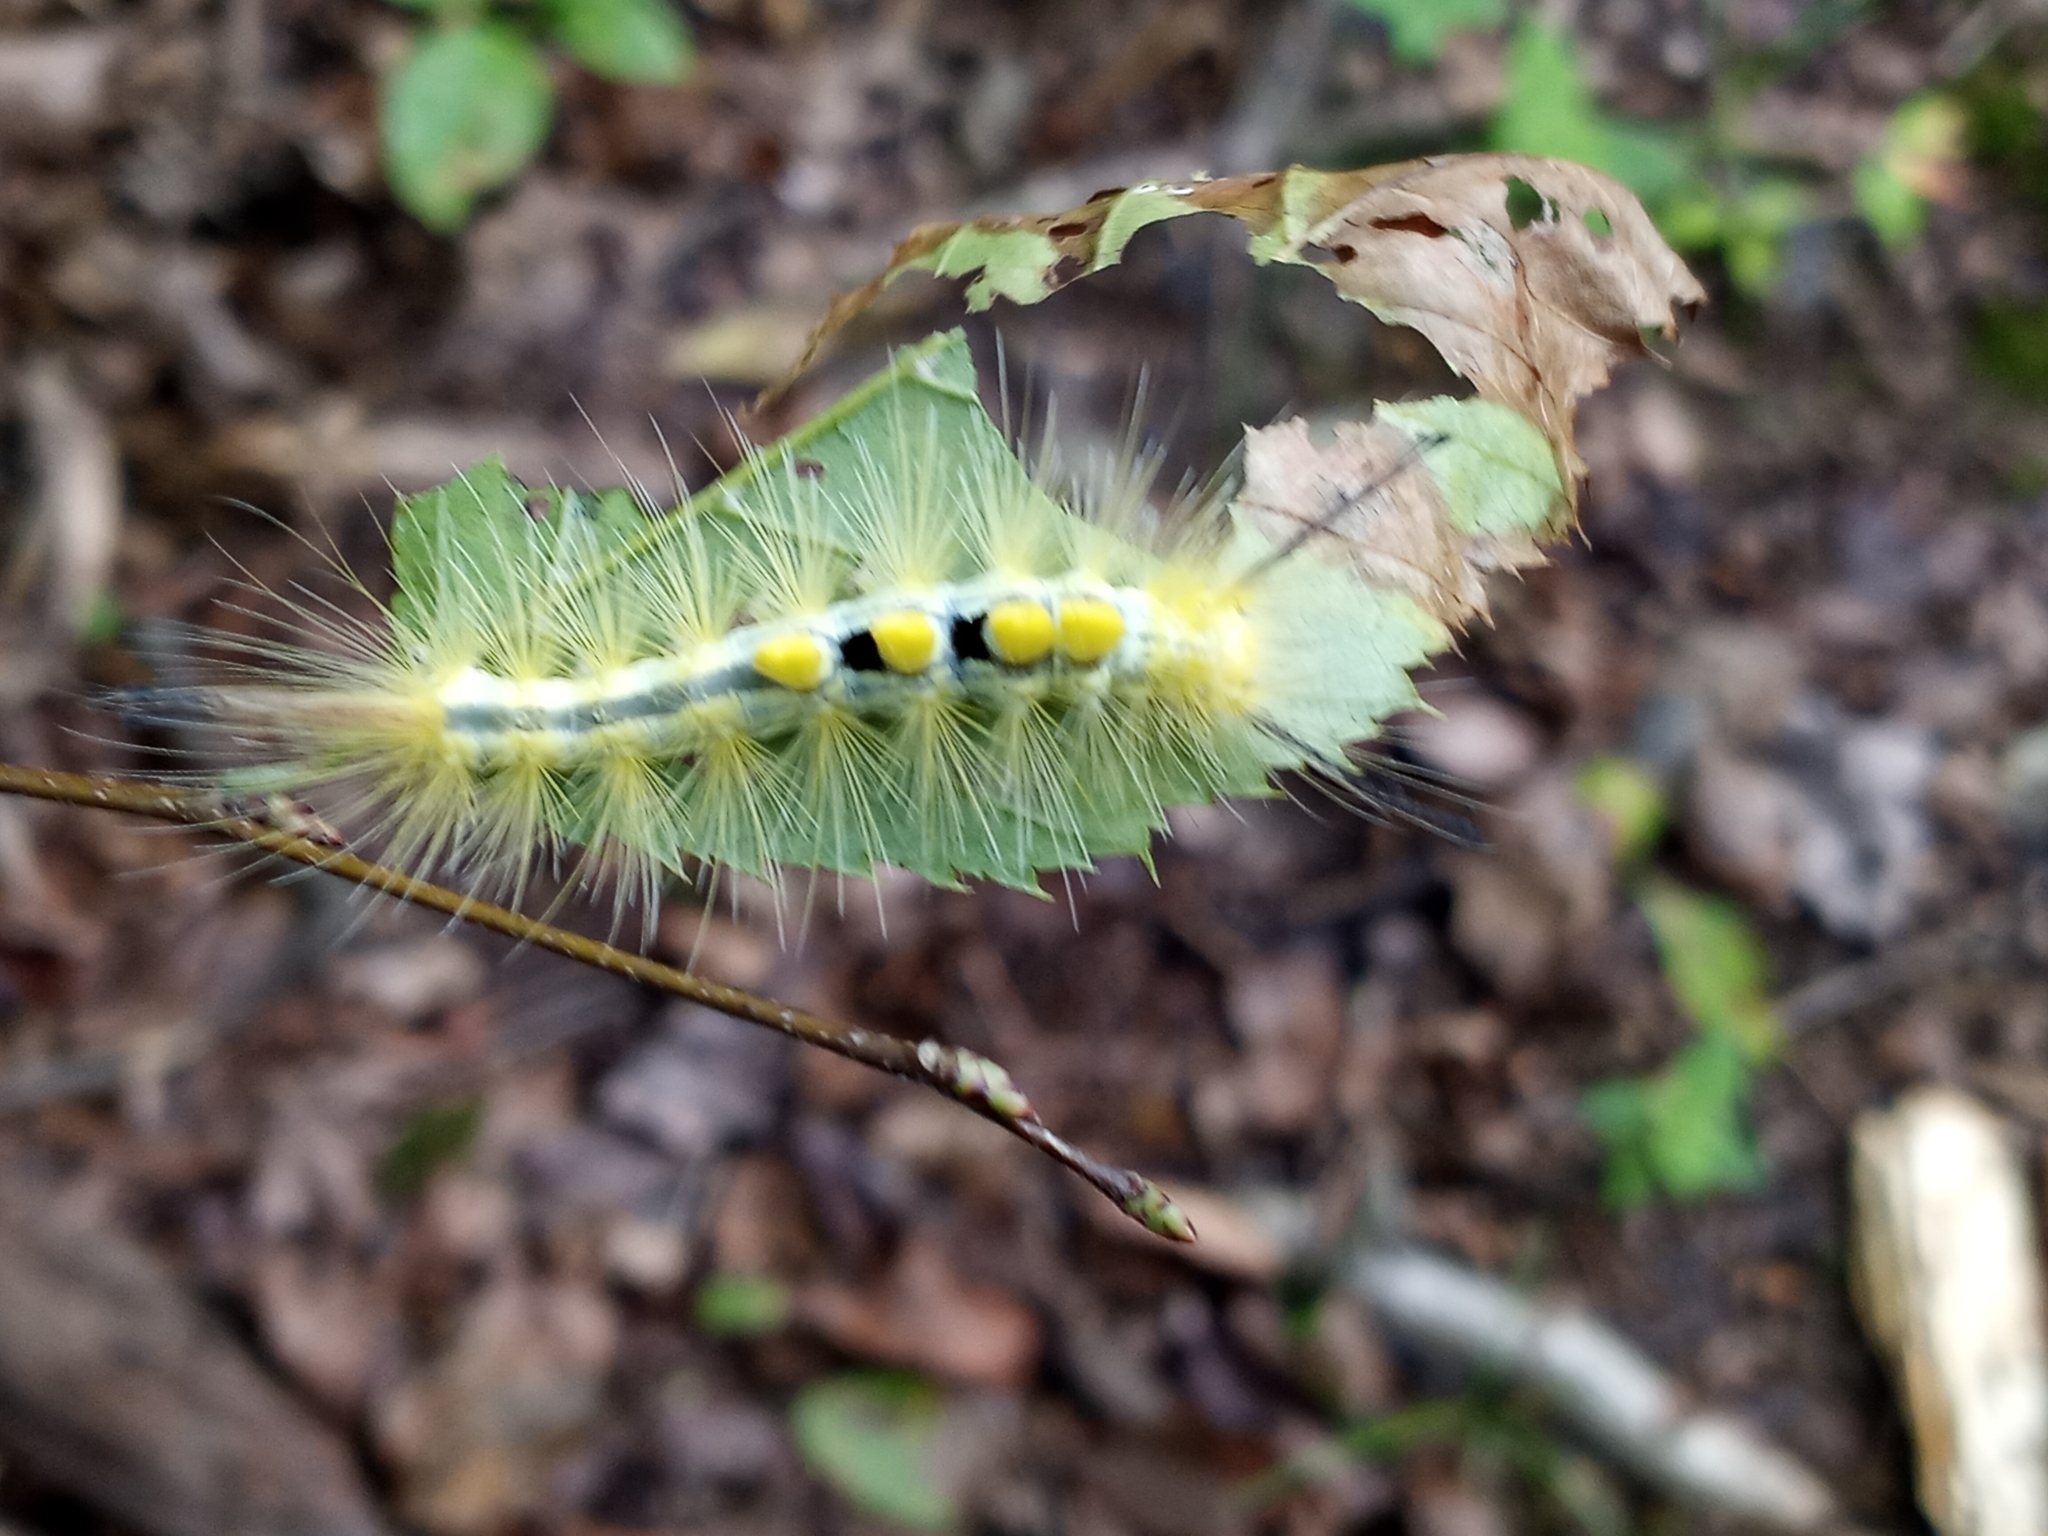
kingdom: Animalia
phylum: Arthropoda
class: Insecta
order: Lepidoptera
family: Erebidae
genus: Orgyia
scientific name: Orgyia definita
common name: Definite tussock moth
